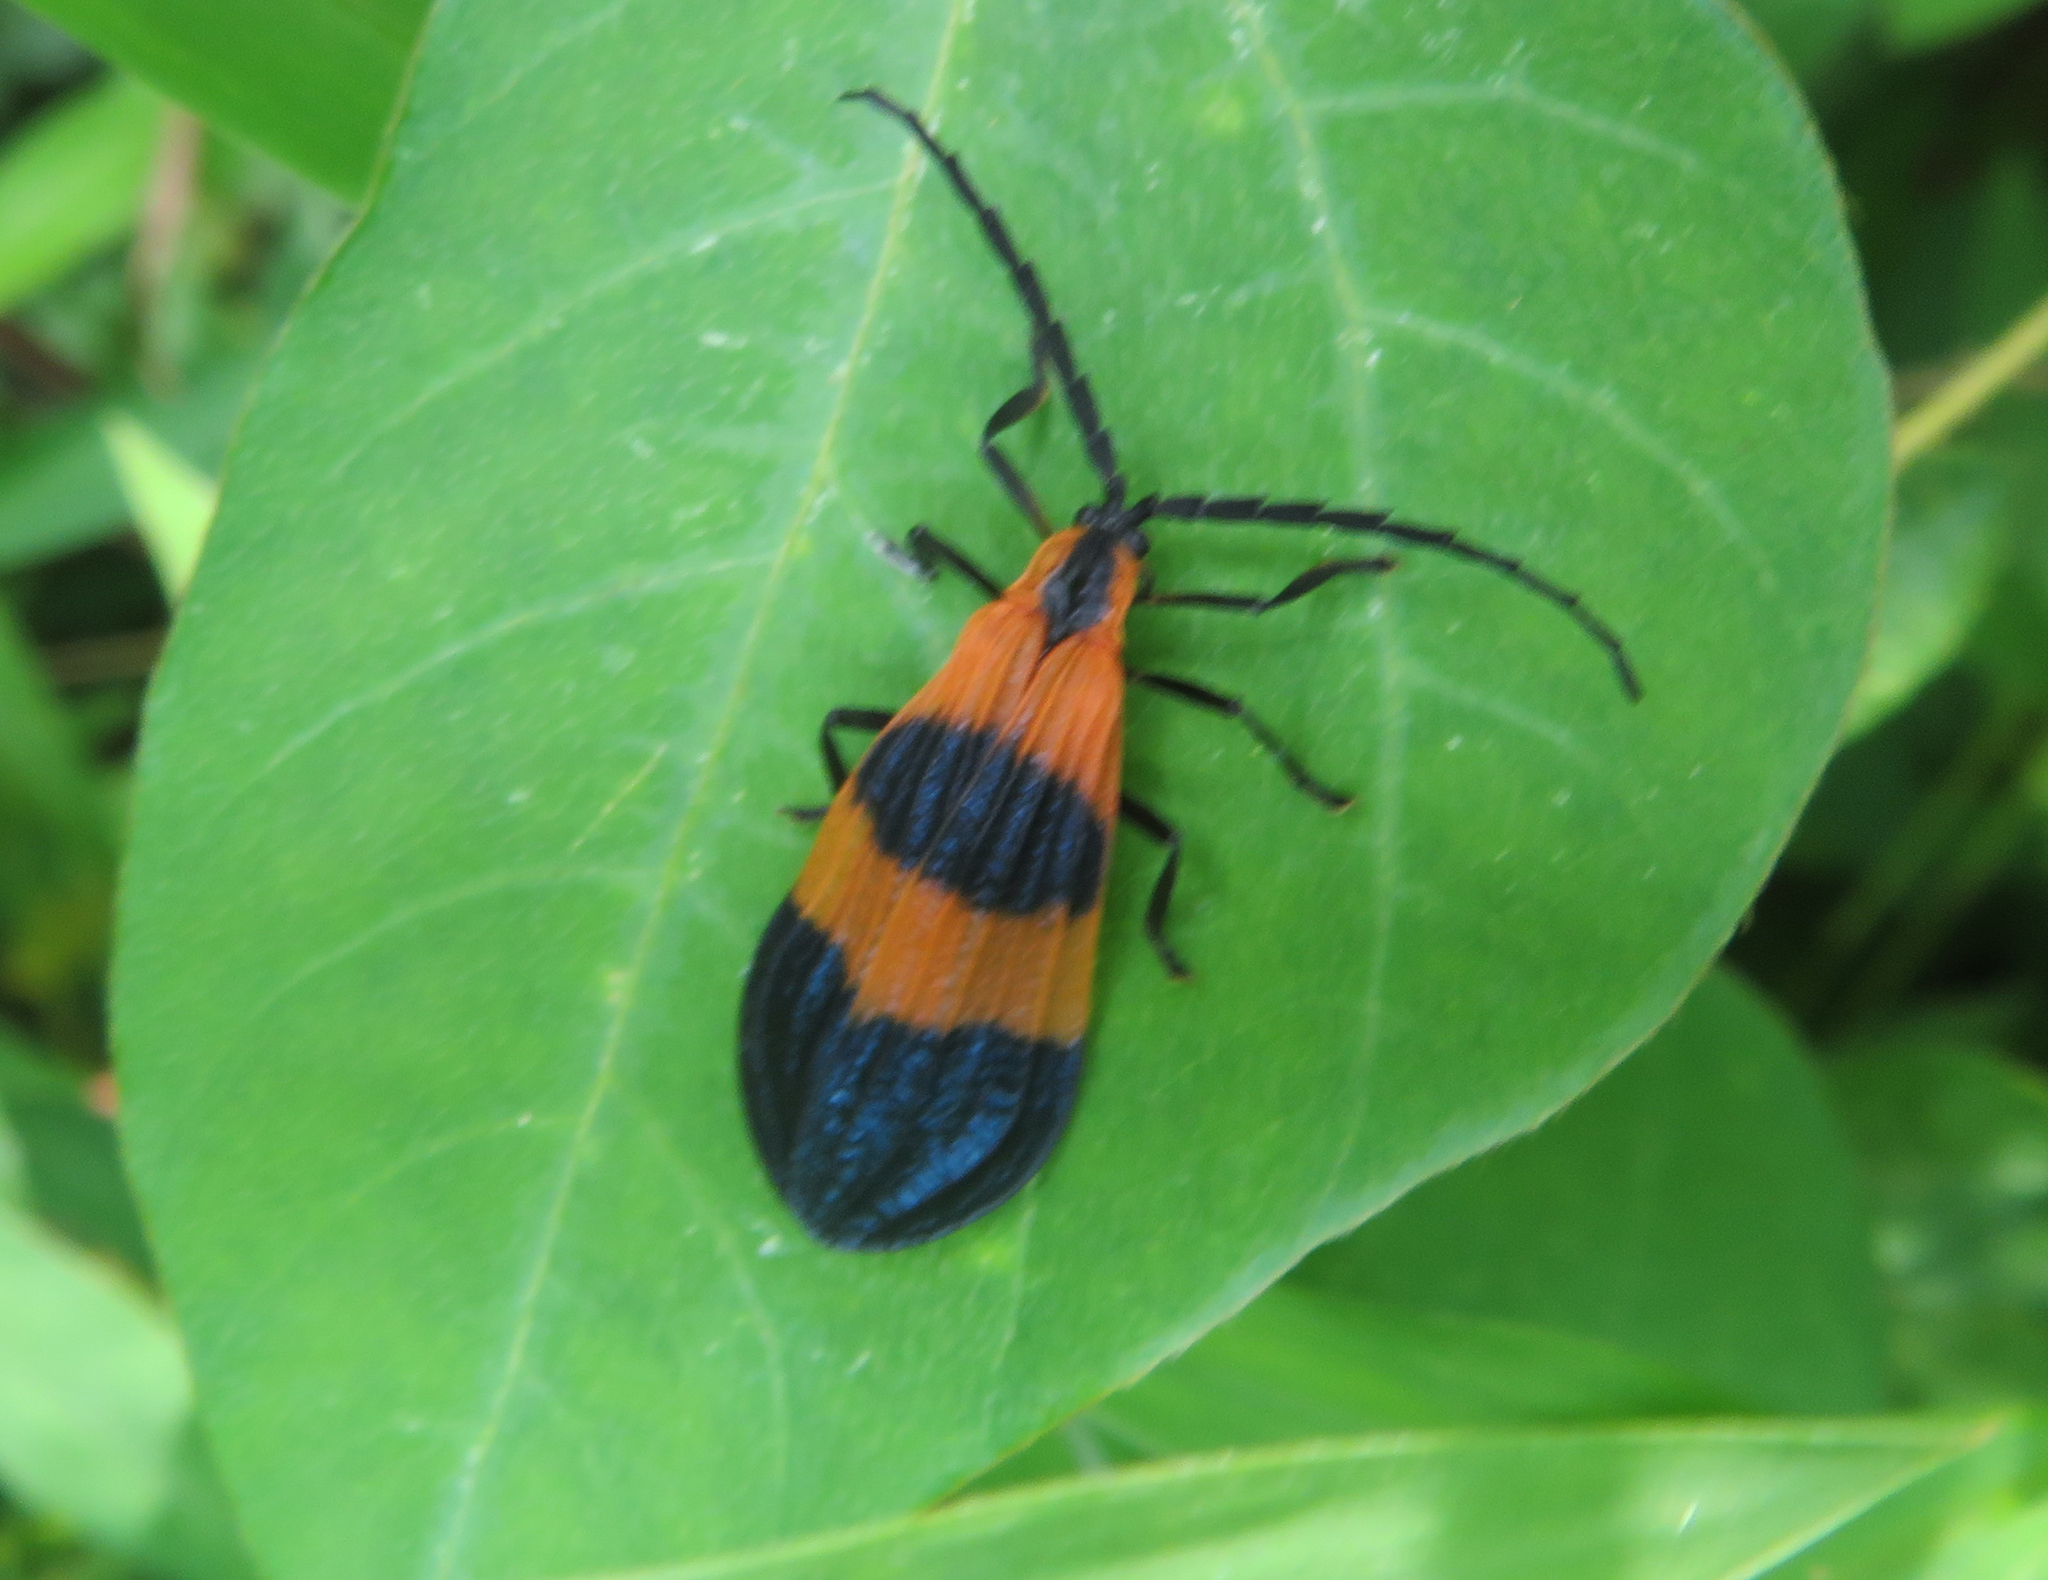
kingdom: Animalia
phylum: Arthropoda
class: Insecta
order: Coleoptera
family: Lycidae
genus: Calopteron
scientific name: Calopteron terminale
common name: End band net-winged beetle
